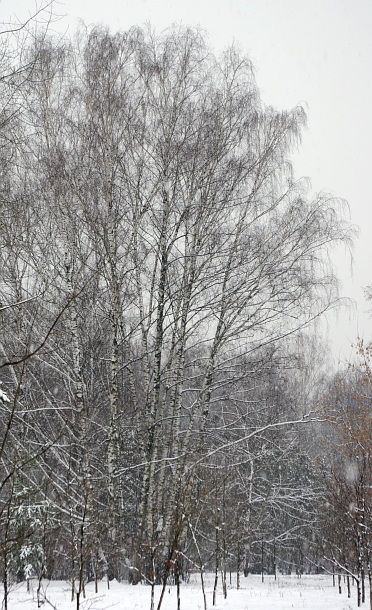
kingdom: Plantae
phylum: Tracheophyta
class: Magnoliopsida
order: Fagales
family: Betulaceae
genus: Betula
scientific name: Betula pendula
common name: Silver birch
